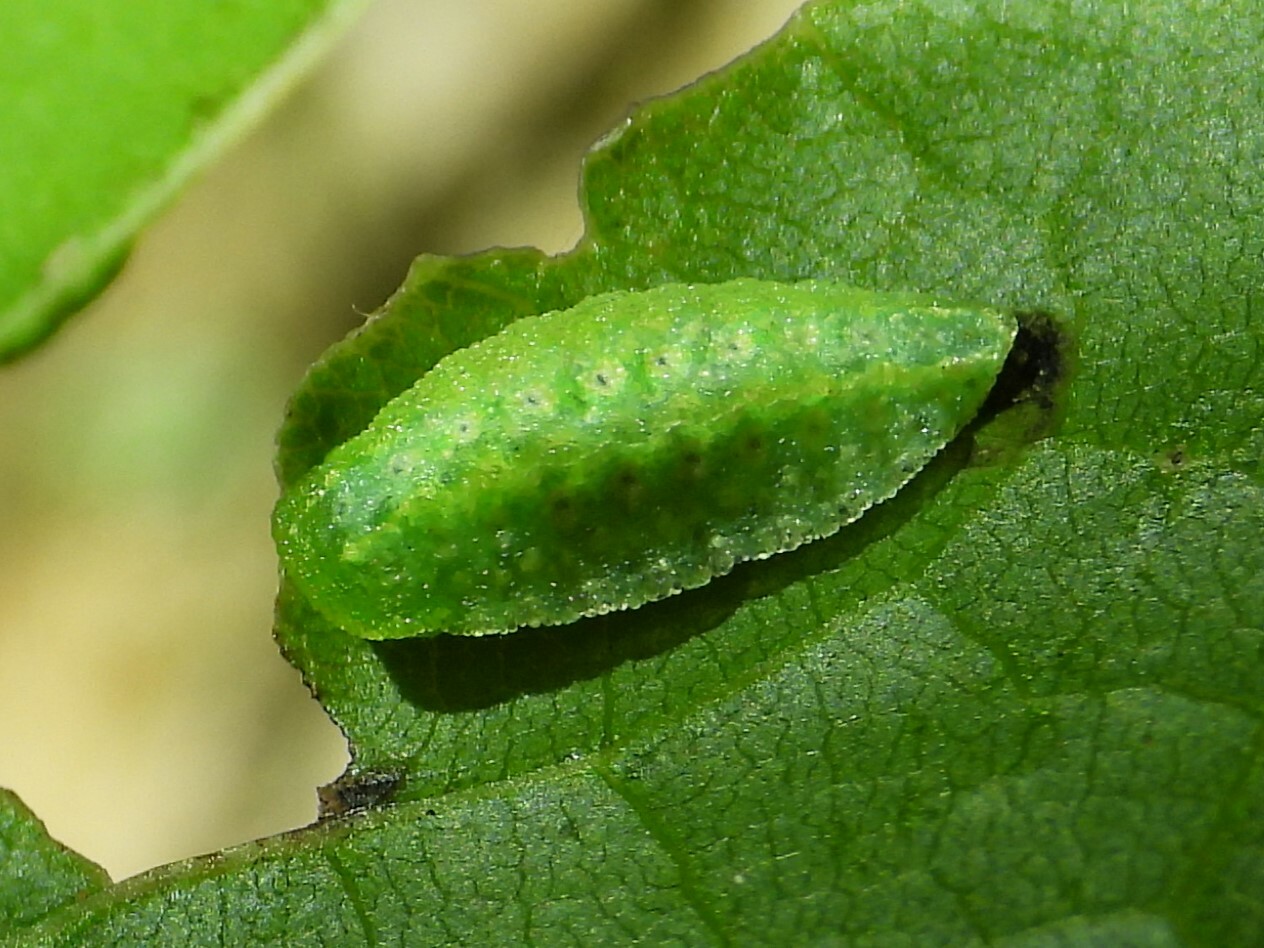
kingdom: Animalia
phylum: Arthropoda
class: Insecta
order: Lepidoptera
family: Limacodidae
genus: Lithacodes
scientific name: Lithacodes fasciola
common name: Yellow-shouldered slug moth
